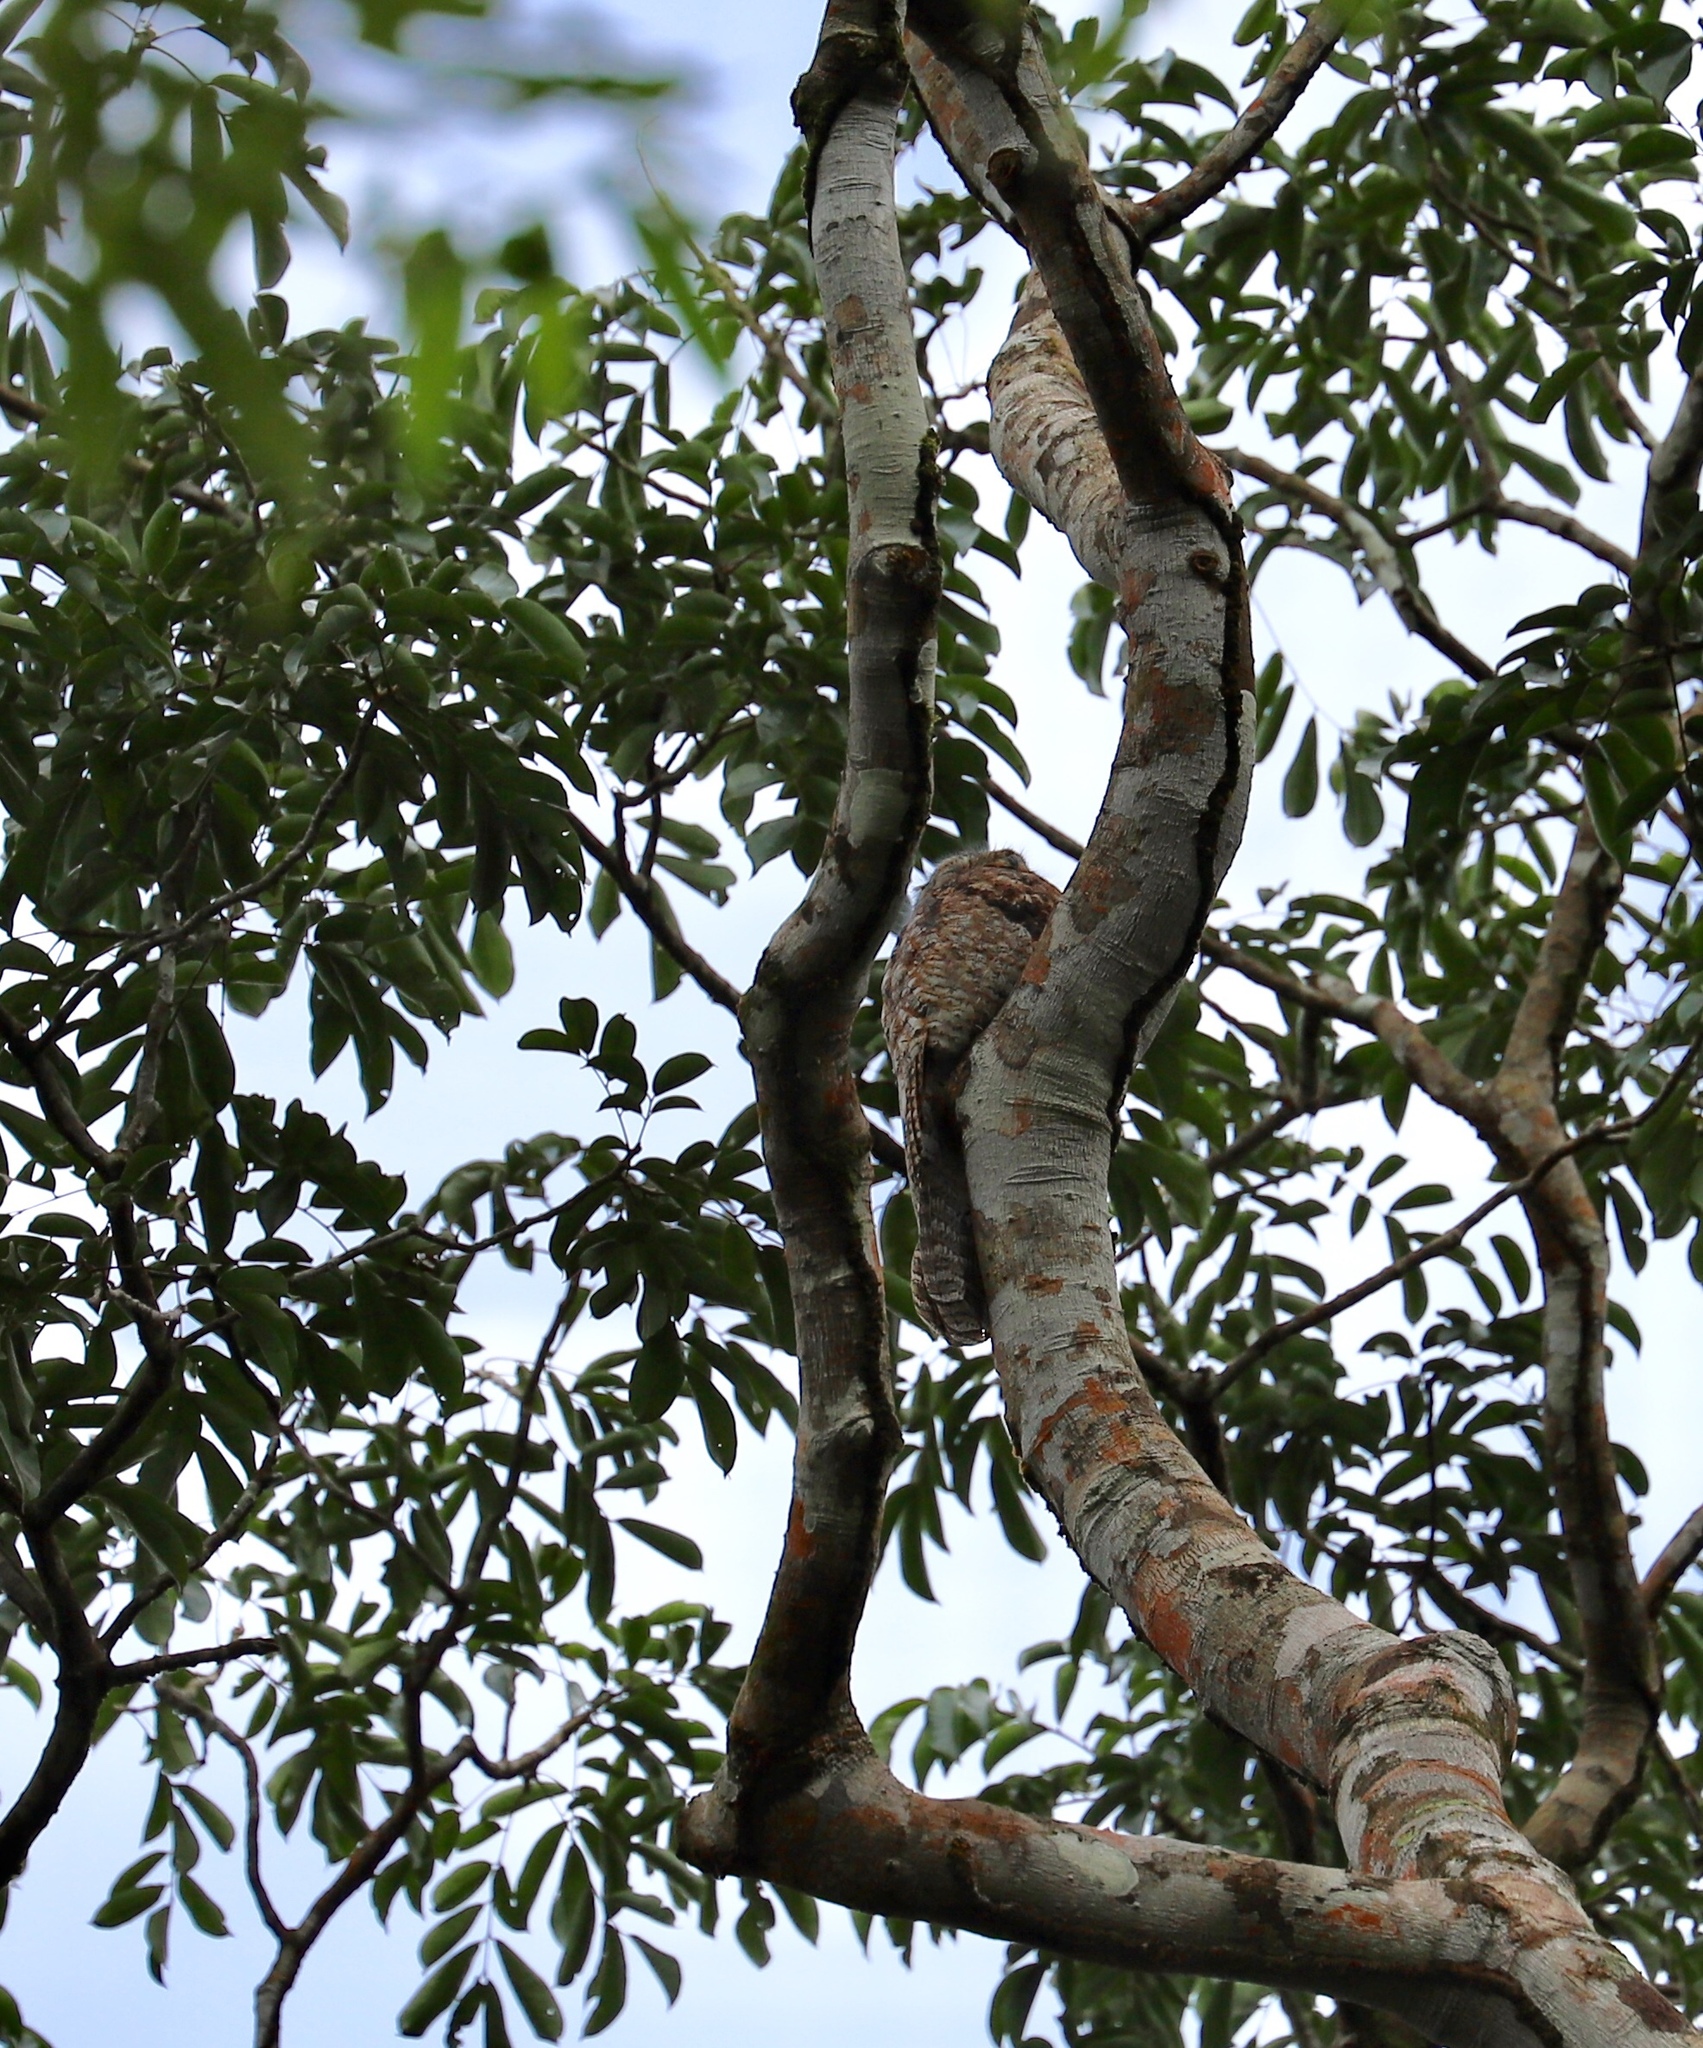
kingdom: Animalia
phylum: Chordata
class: Aves
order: Nyctibiiformes
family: Nyctibiidae
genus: Nyctibius
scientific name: Nyctibius grandis
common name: Great potoo
